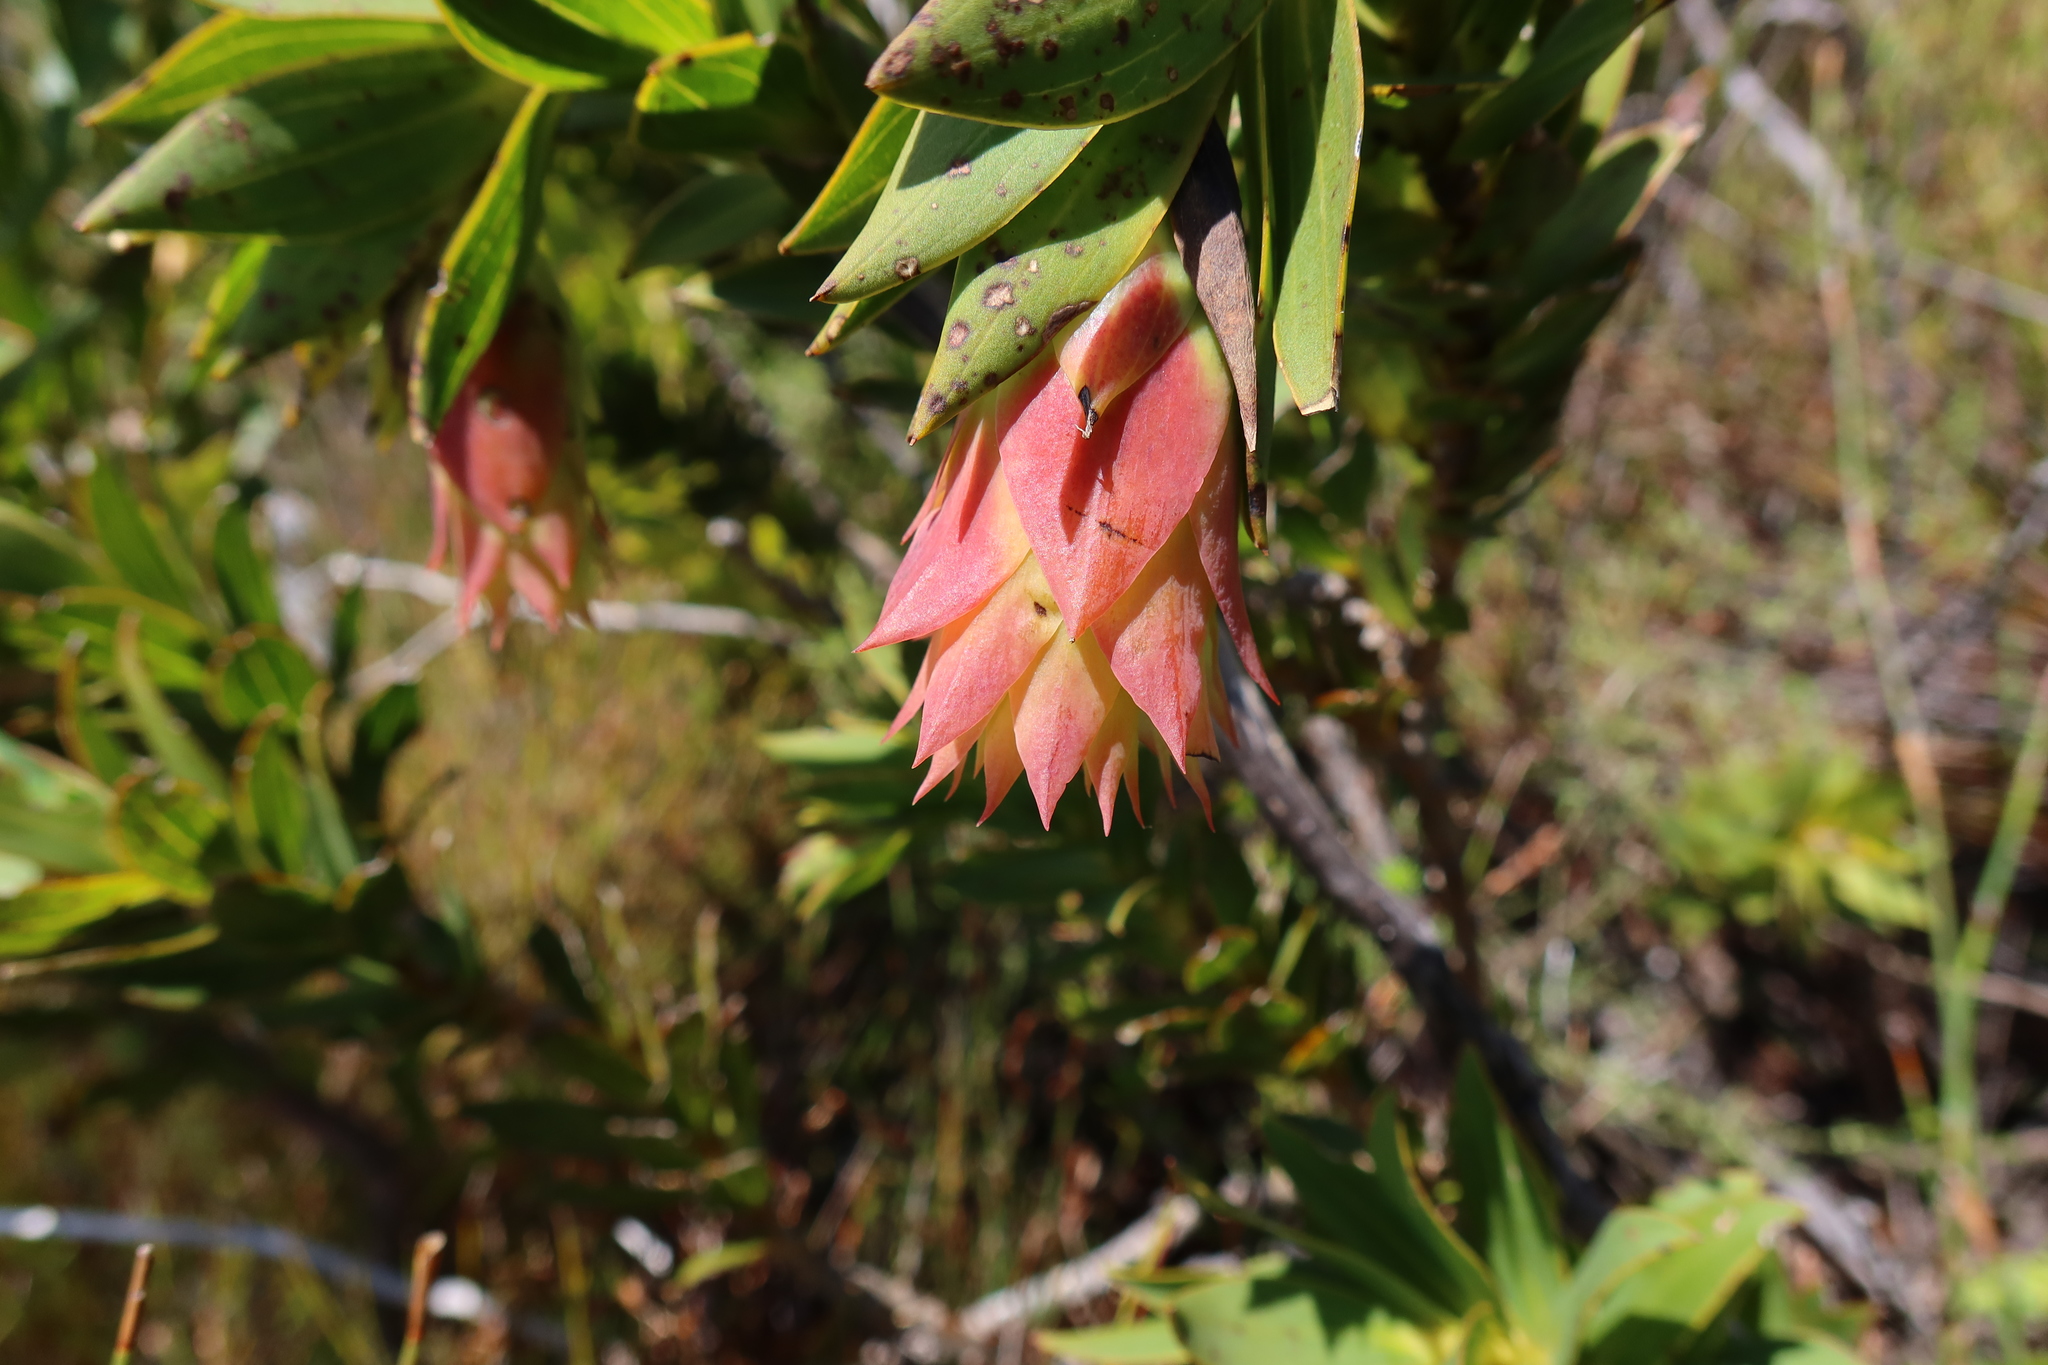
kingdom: Plantae
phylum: Tracheophyta
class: Magnoliopsida
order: Fabales
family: Fabaceae
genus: Liparia
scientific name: Liparia splendens
